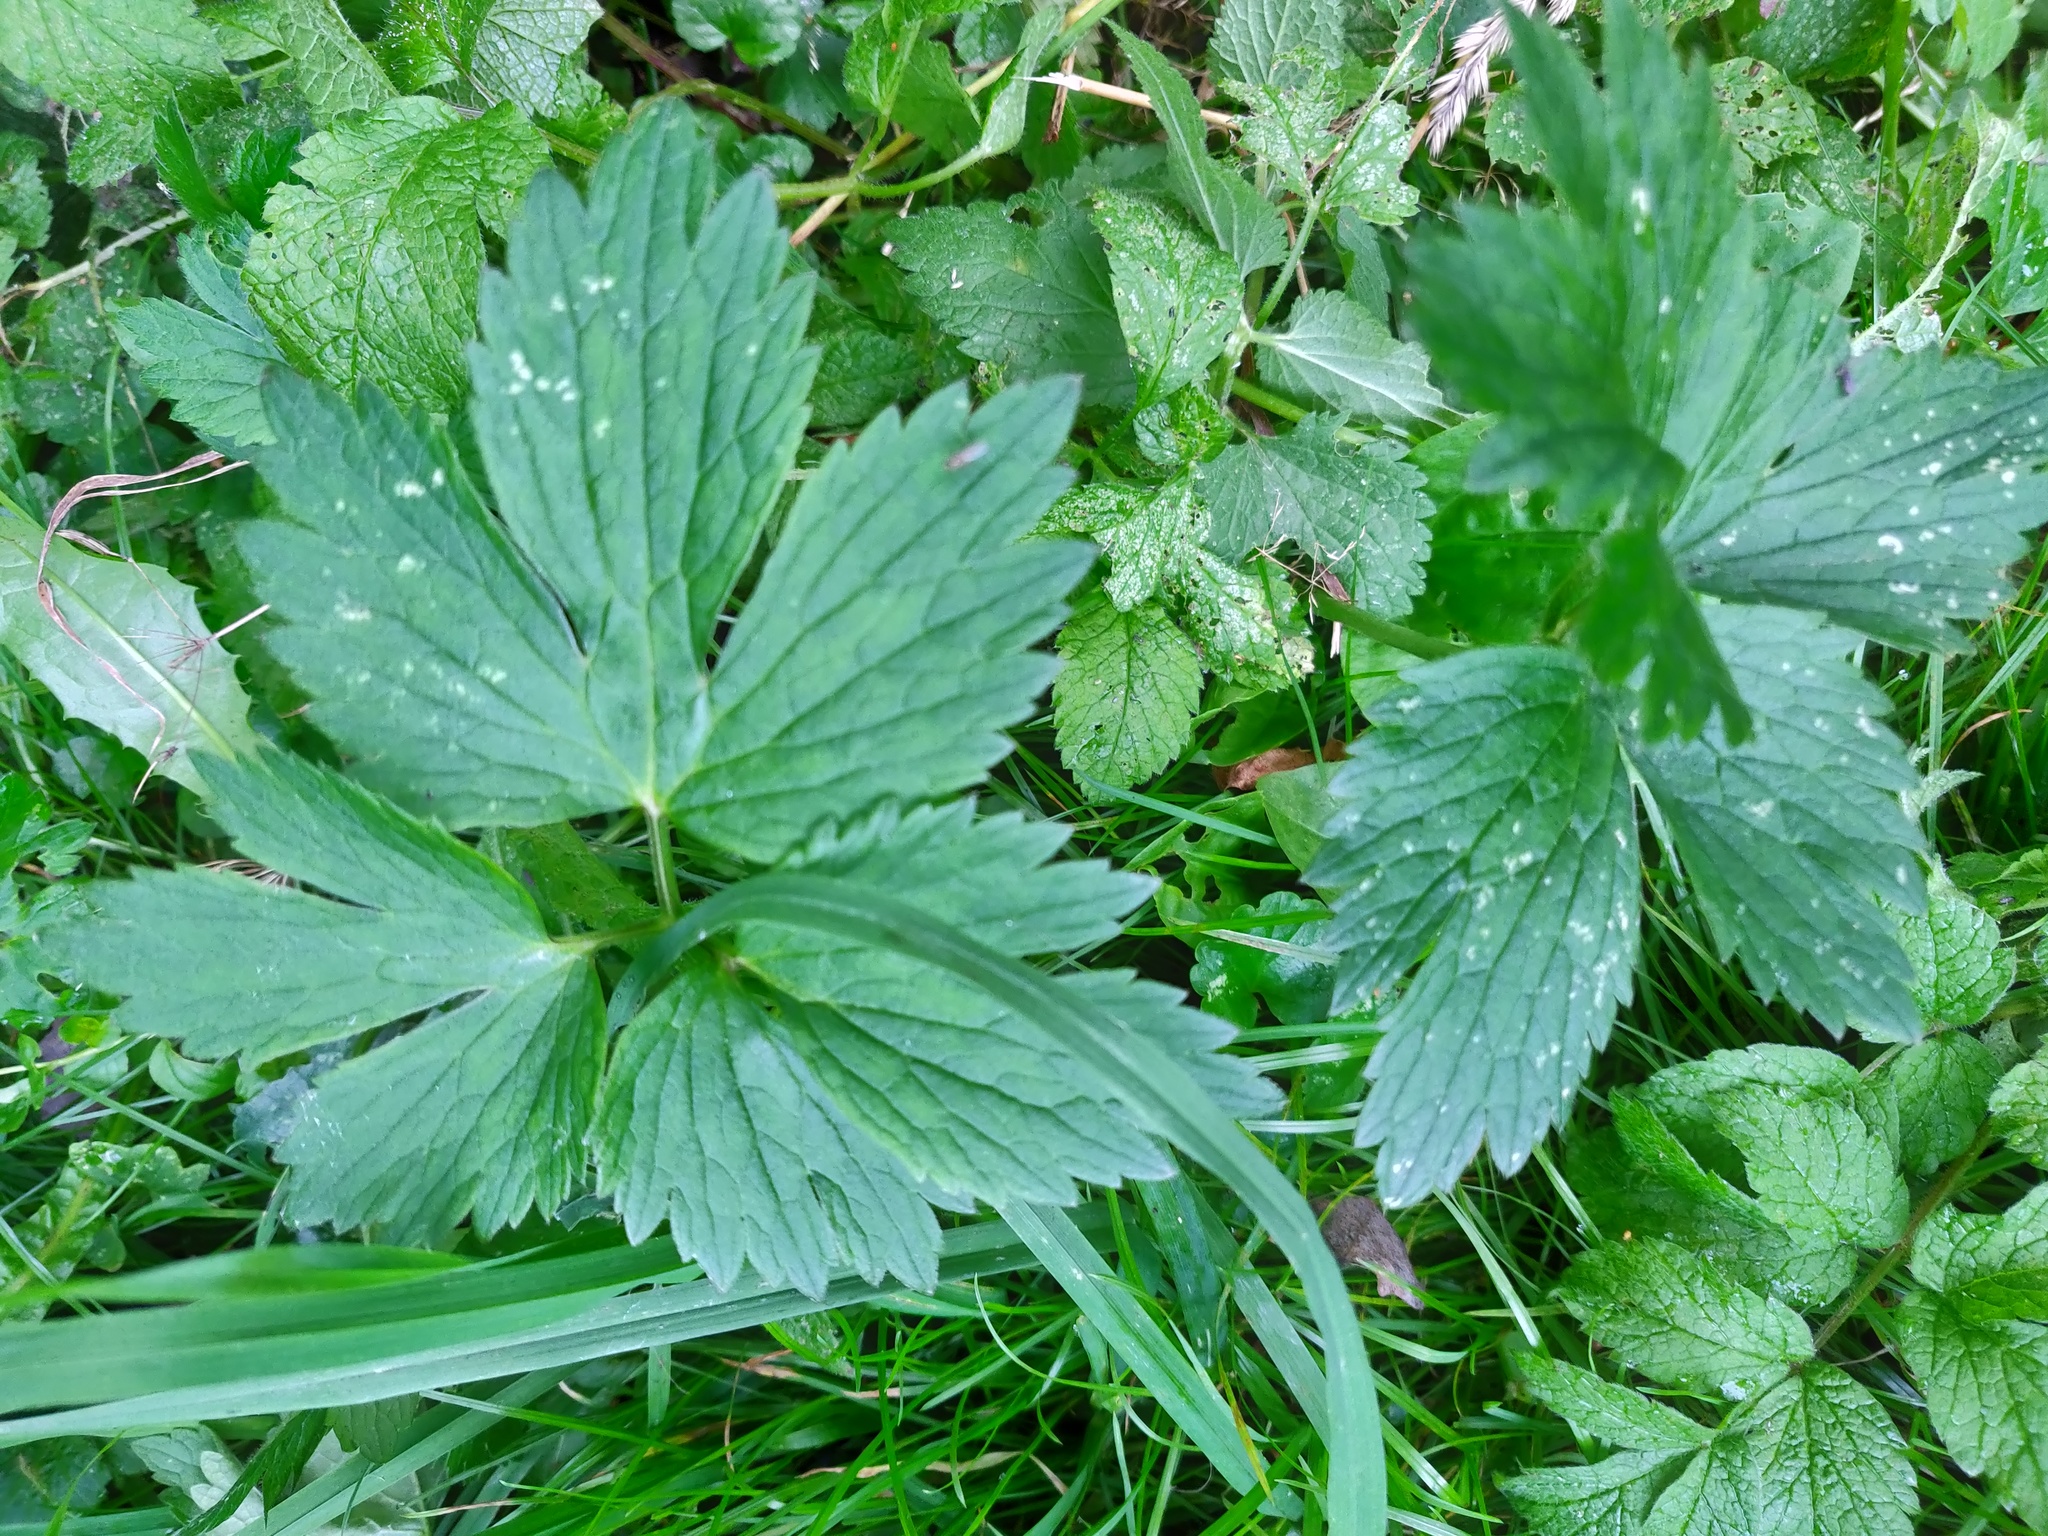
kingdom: Plantae
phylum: Tracheophyta
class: Magnoliopsida
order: Ranunculales
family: Ranunculaceae
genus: Ranunculus
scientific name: Ranunculus repens
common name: Creeping buttercup
